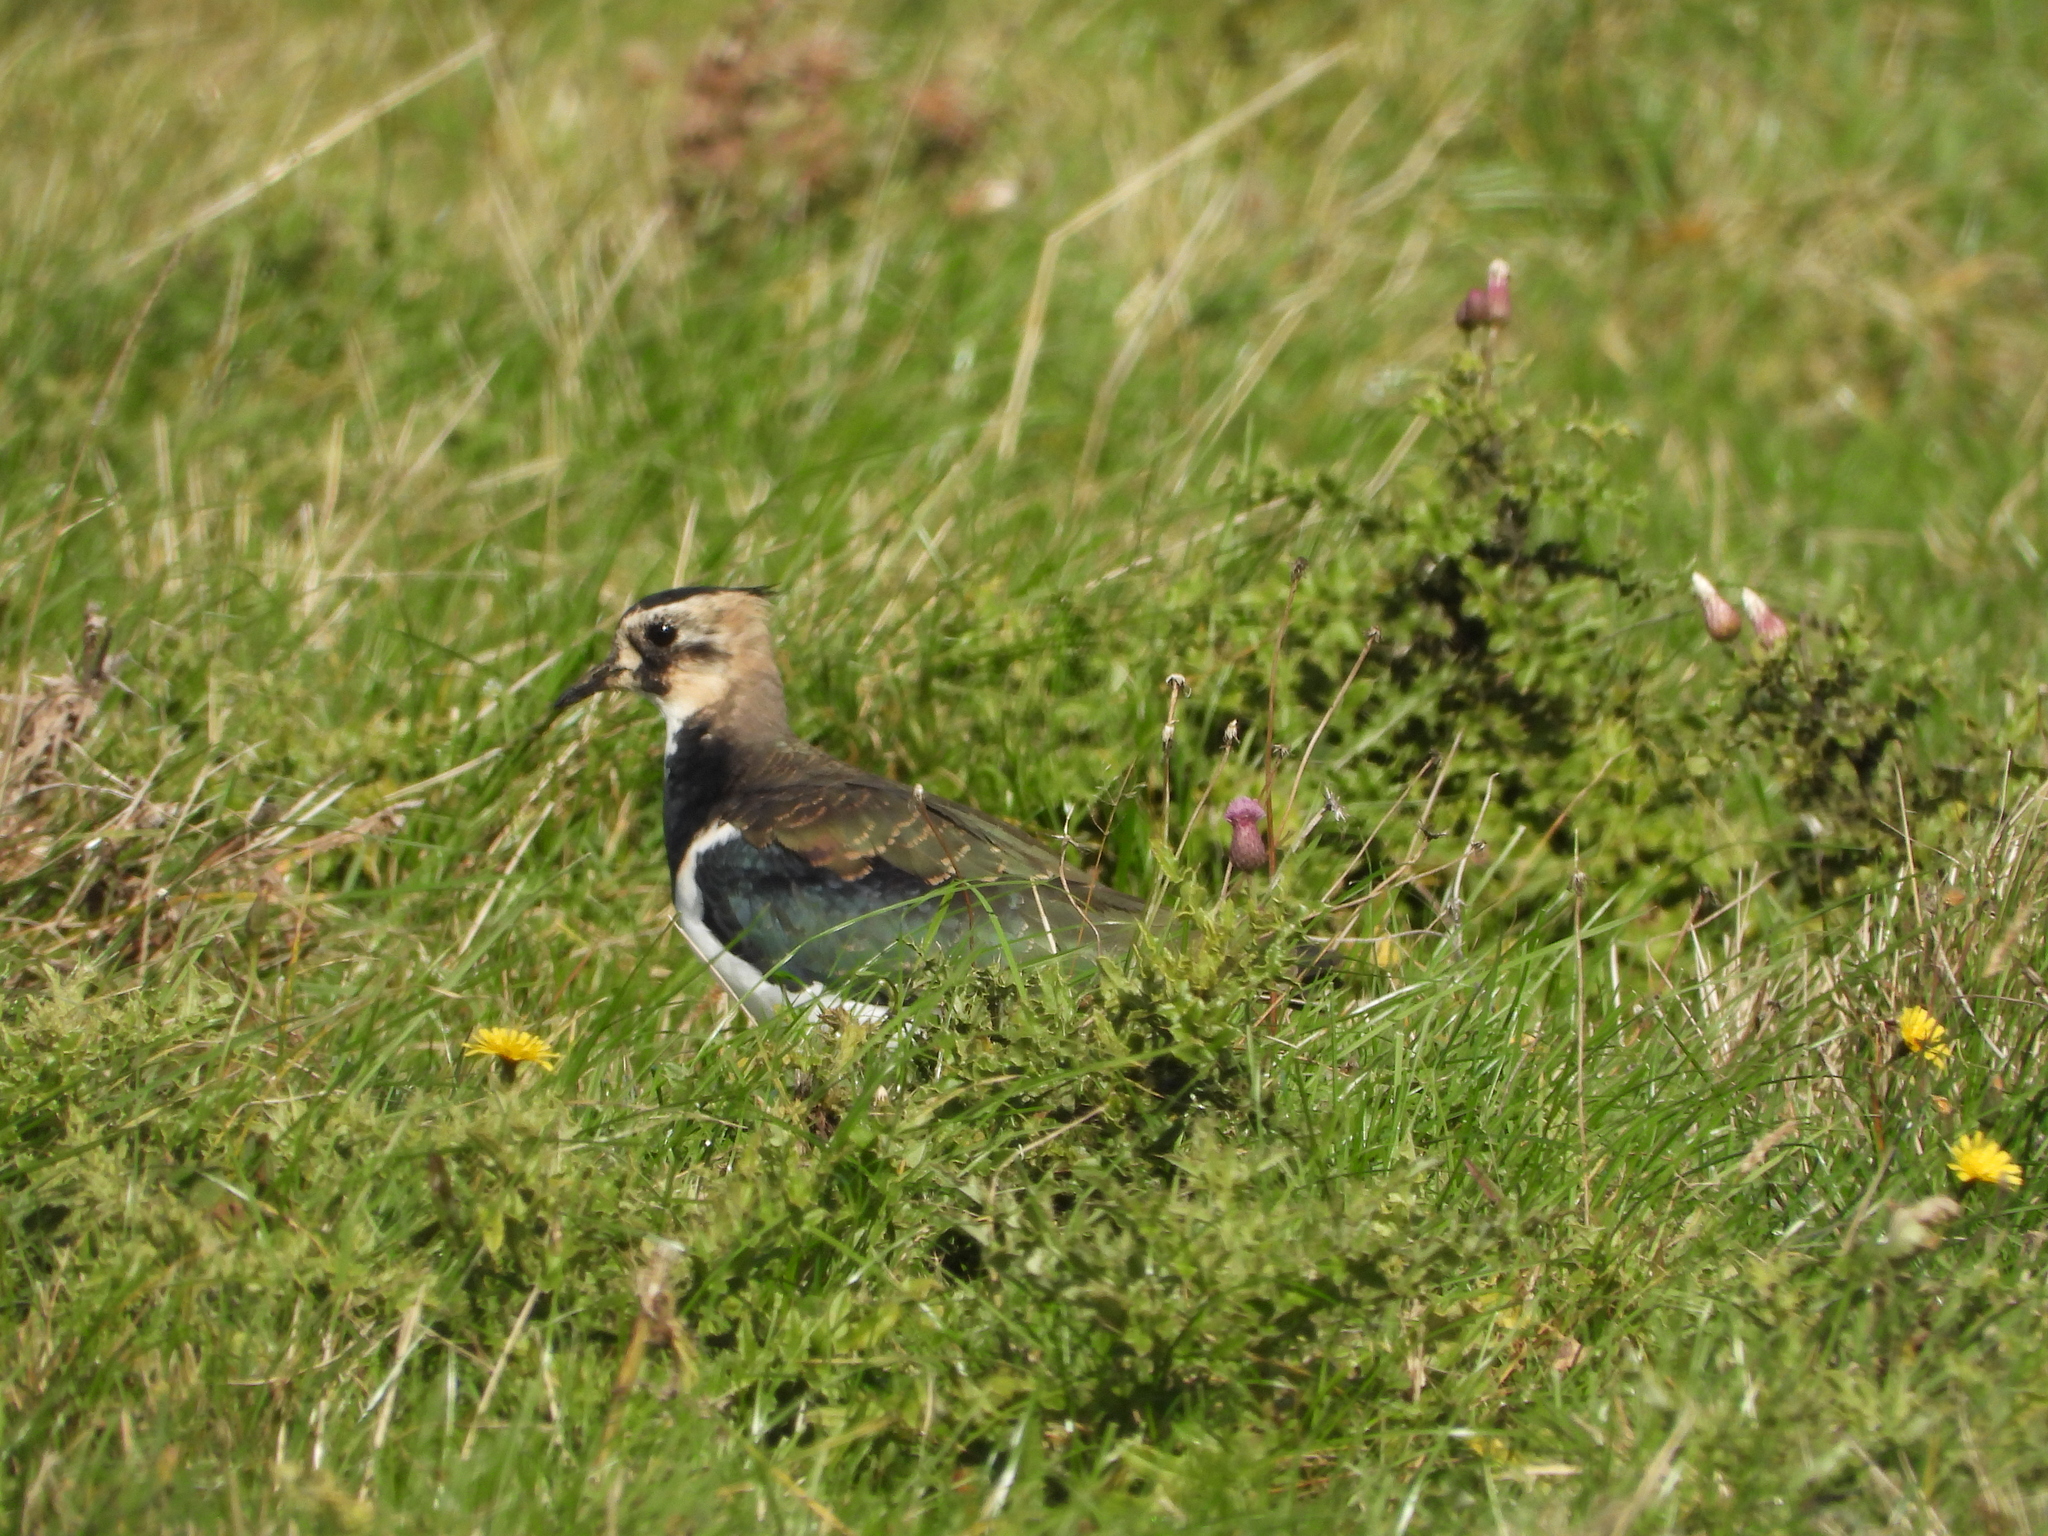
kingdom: Animalia
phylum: Chordata
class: Aves
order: Charadriiformes
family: Charadriidae
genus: Vanellus
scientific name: Vanellus vanellus
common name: Northern lapwing
